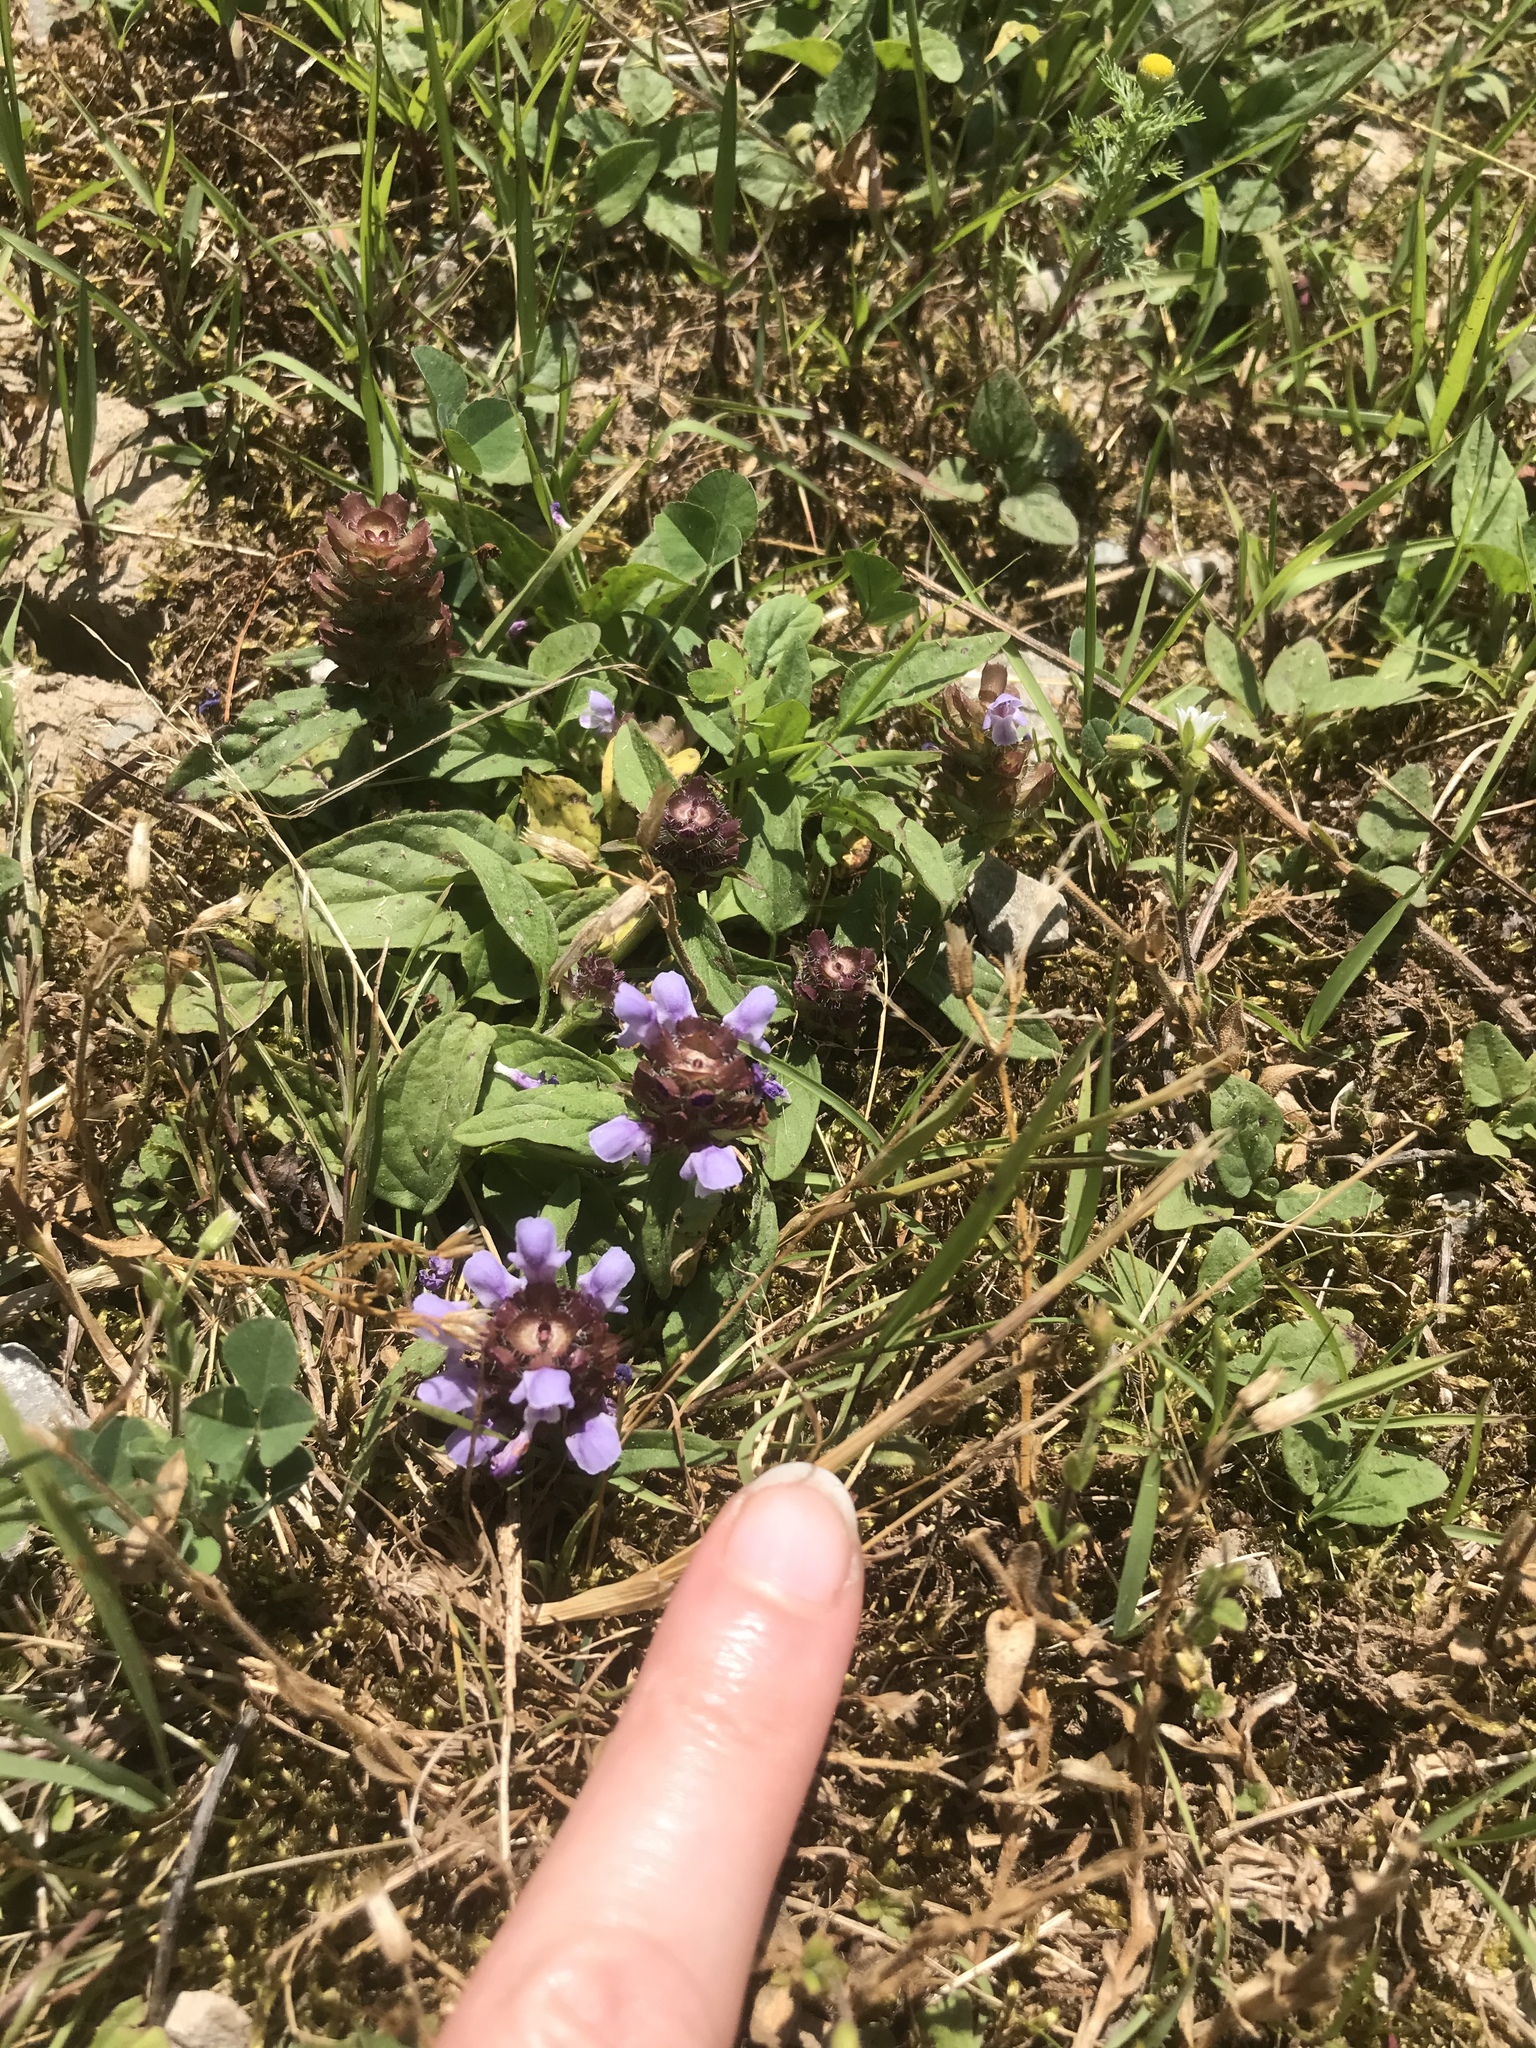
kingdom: Plantae
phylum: Tracheophyta
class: Magnoliopsida
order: Lamiales
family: Lamiaceae
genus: Prunella
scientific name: Prunella vulgaris
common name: Heal-all
